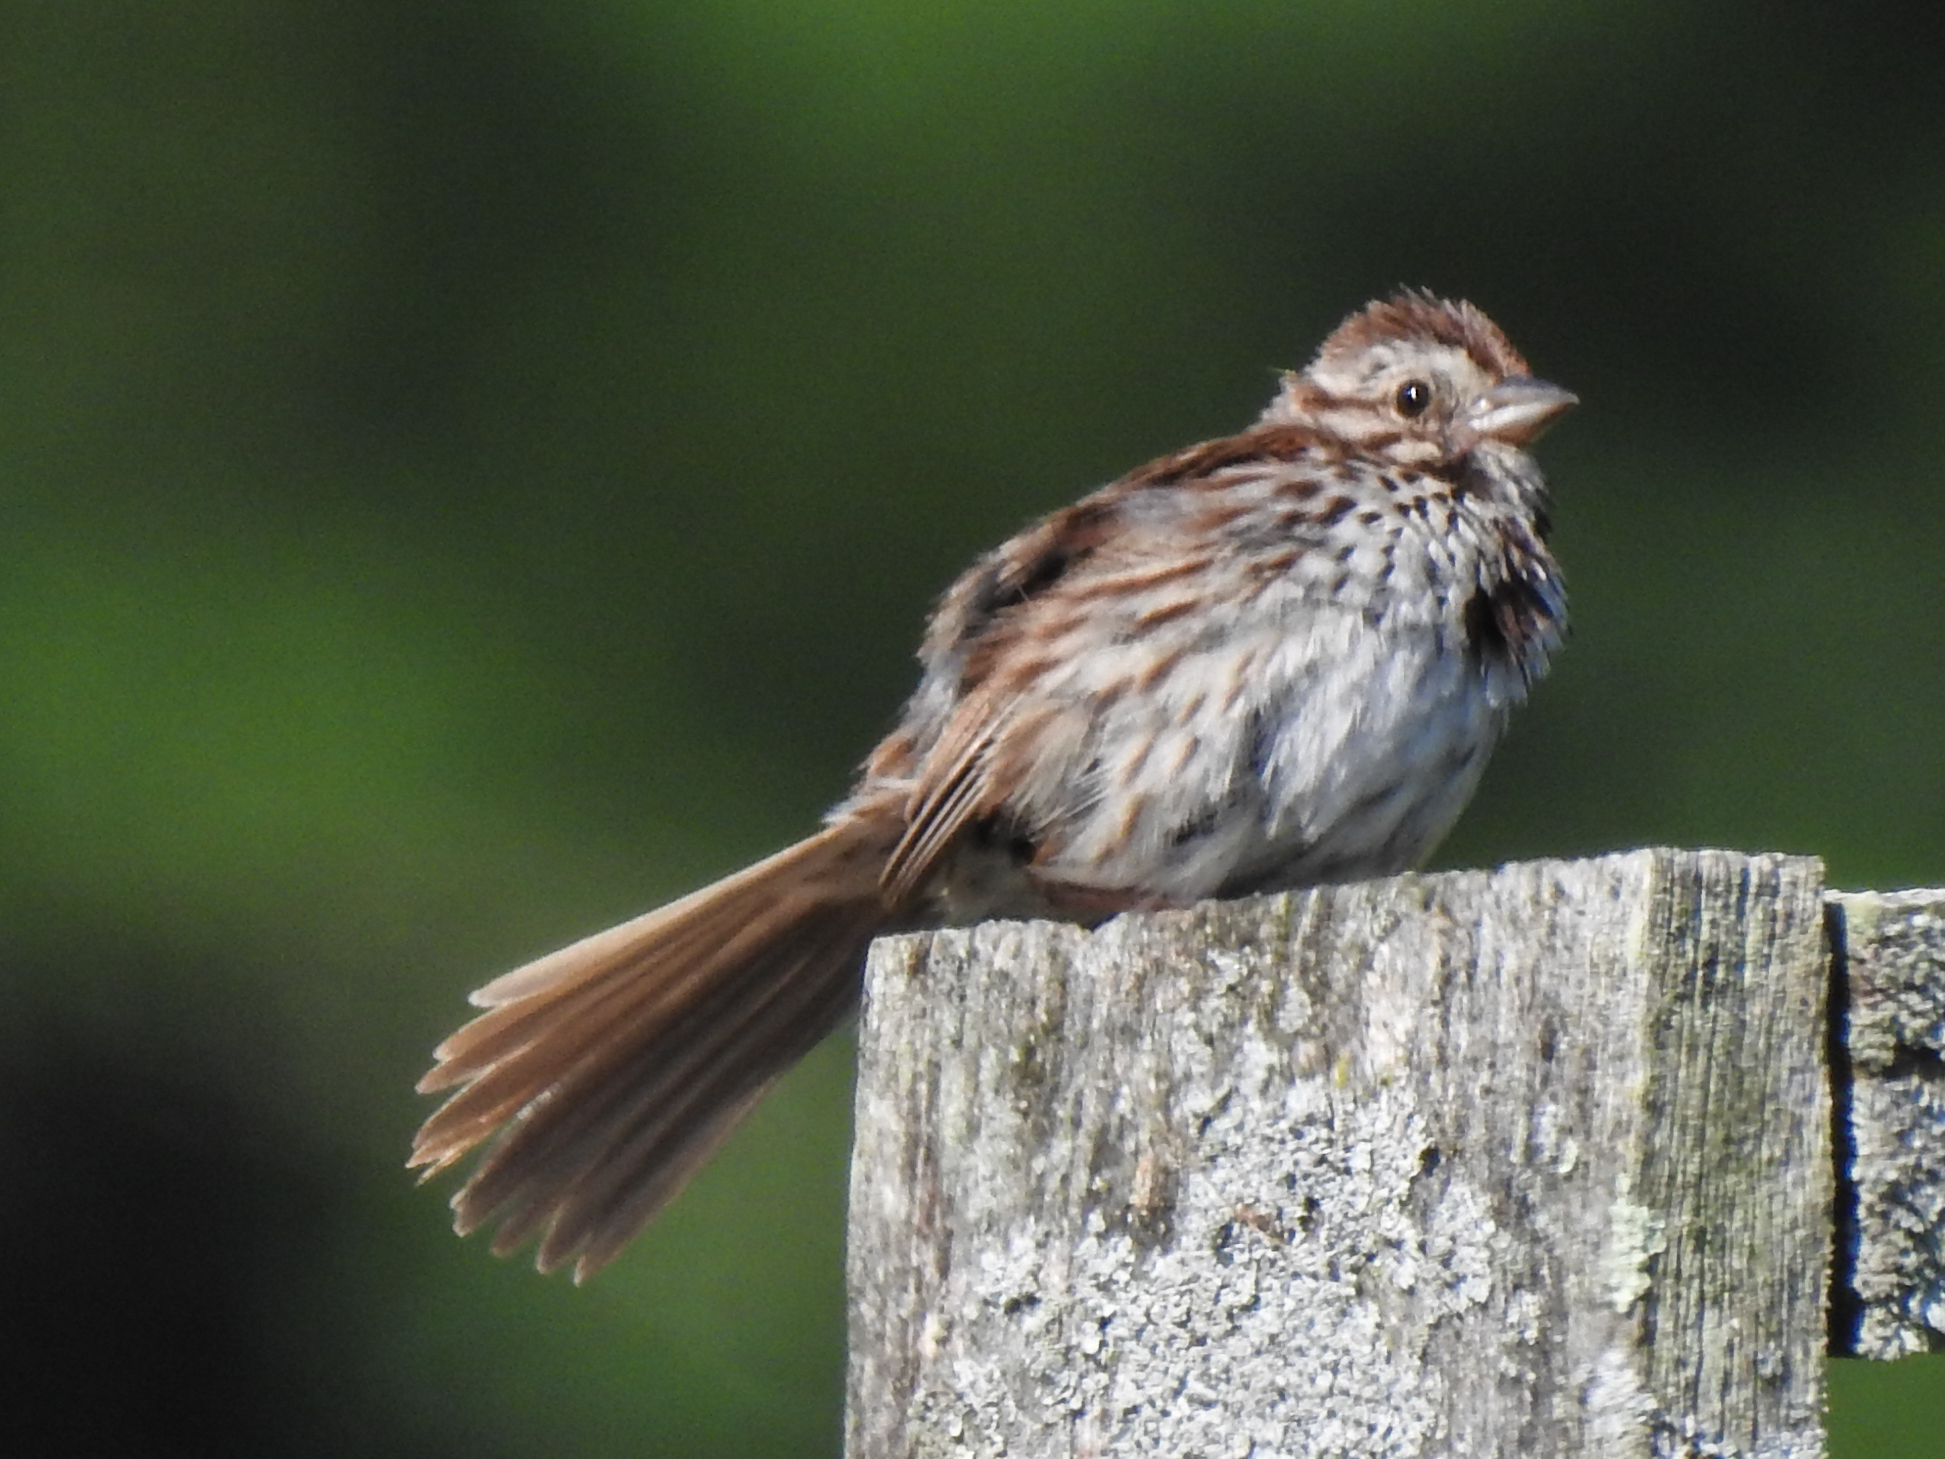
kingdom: Animalia
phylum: Chordata
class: Aves
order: Passeriformes
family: Passerellidae
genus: Melospiza
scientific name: Melospiza melodia
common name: Song sparrow
